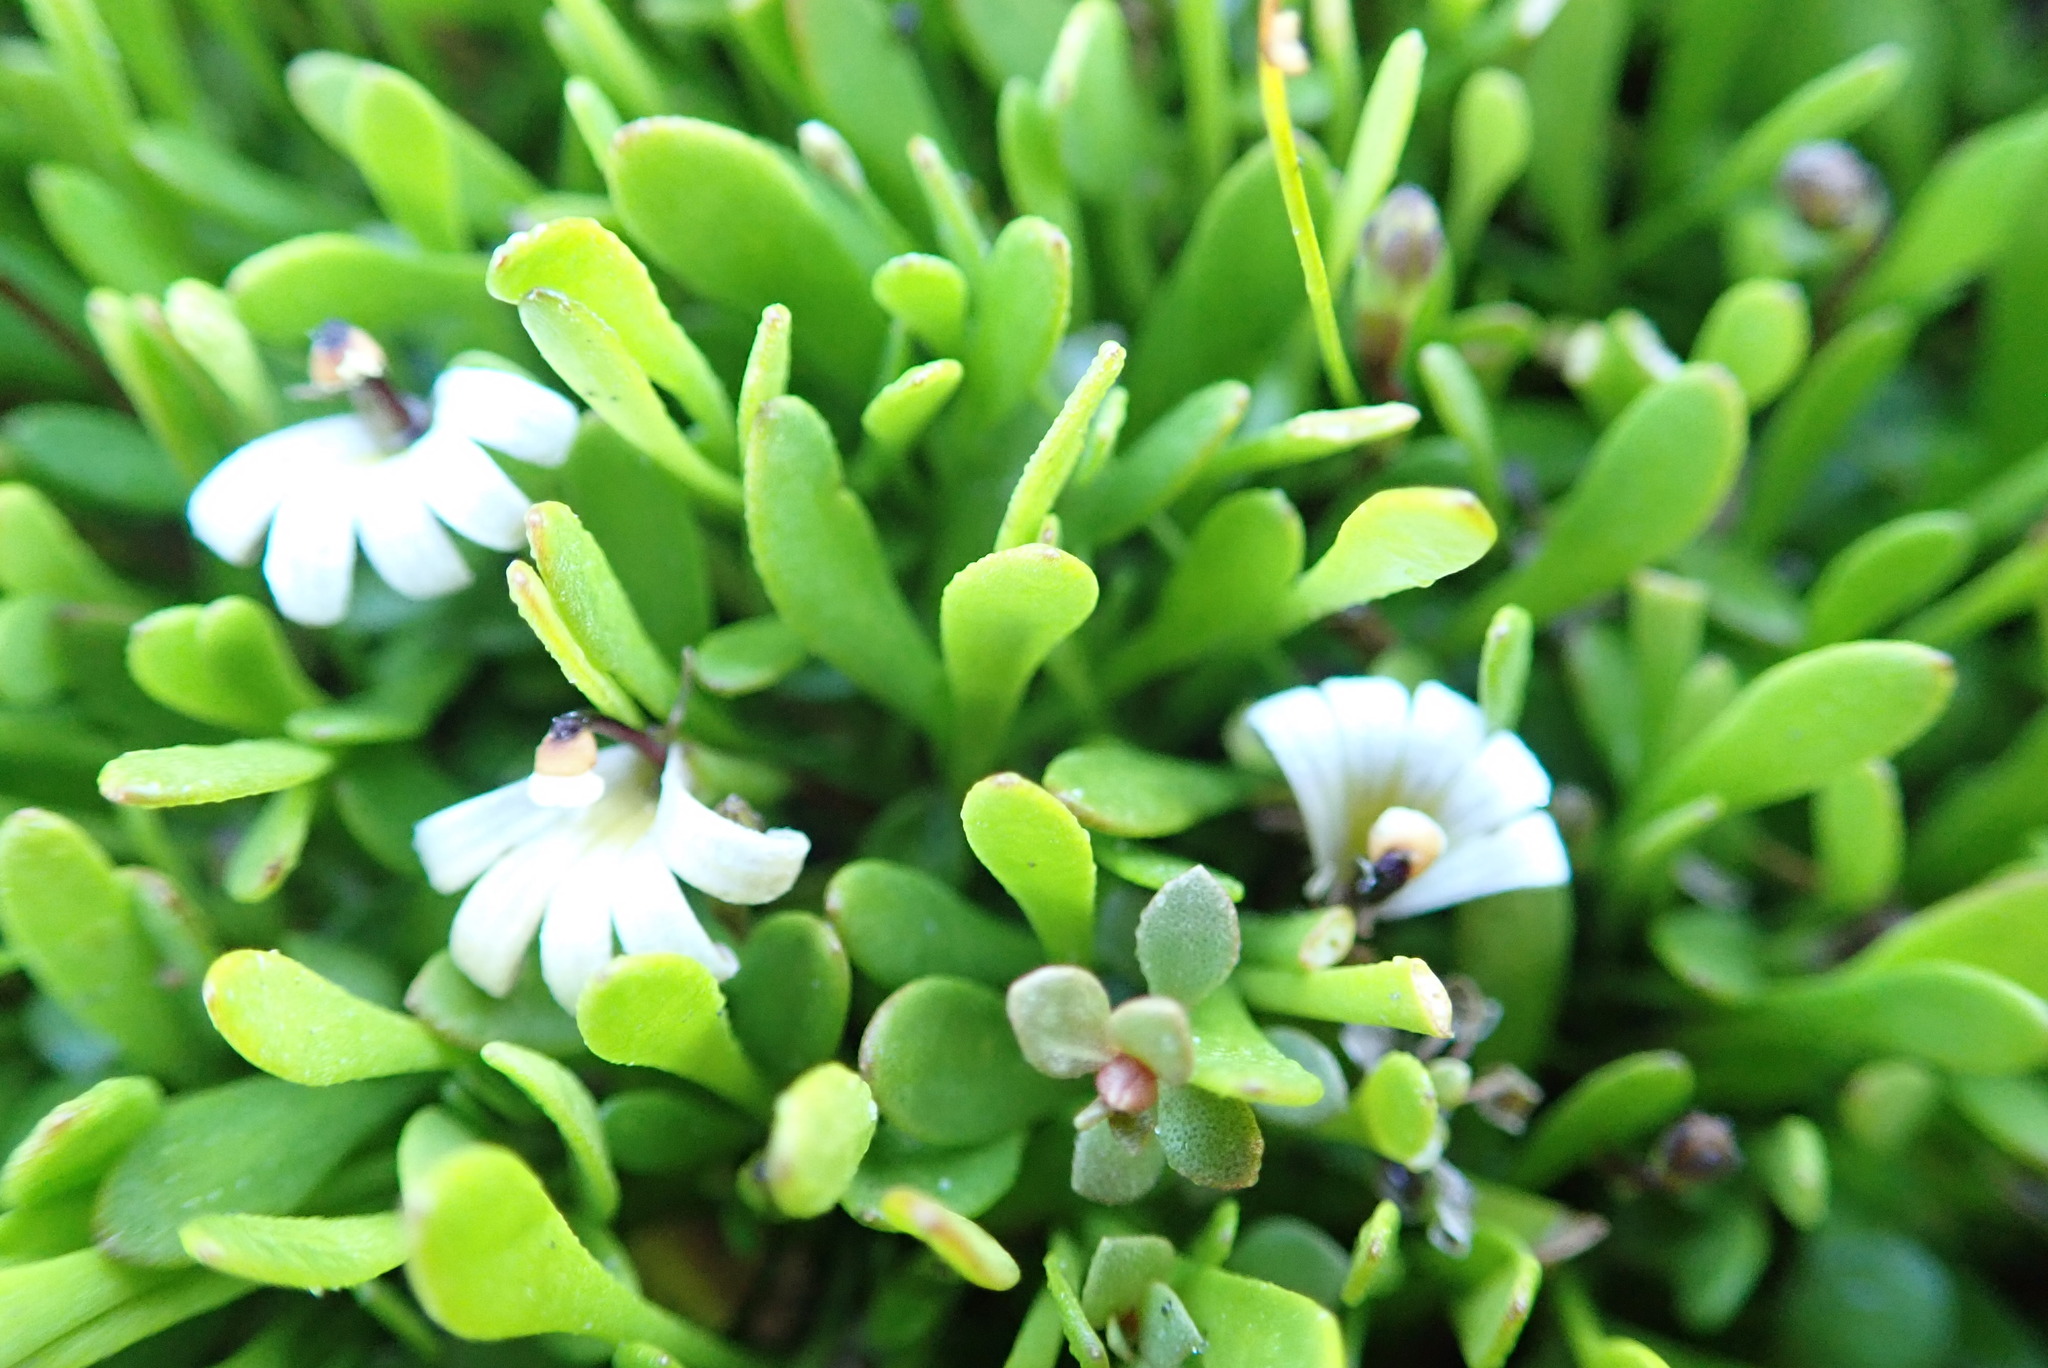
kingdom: Plantae
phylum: Tracheophyta
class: Magnoliopsida
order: Asterales
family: Goodeniaceae
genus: Goodenia
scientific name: Goodenia radicans
